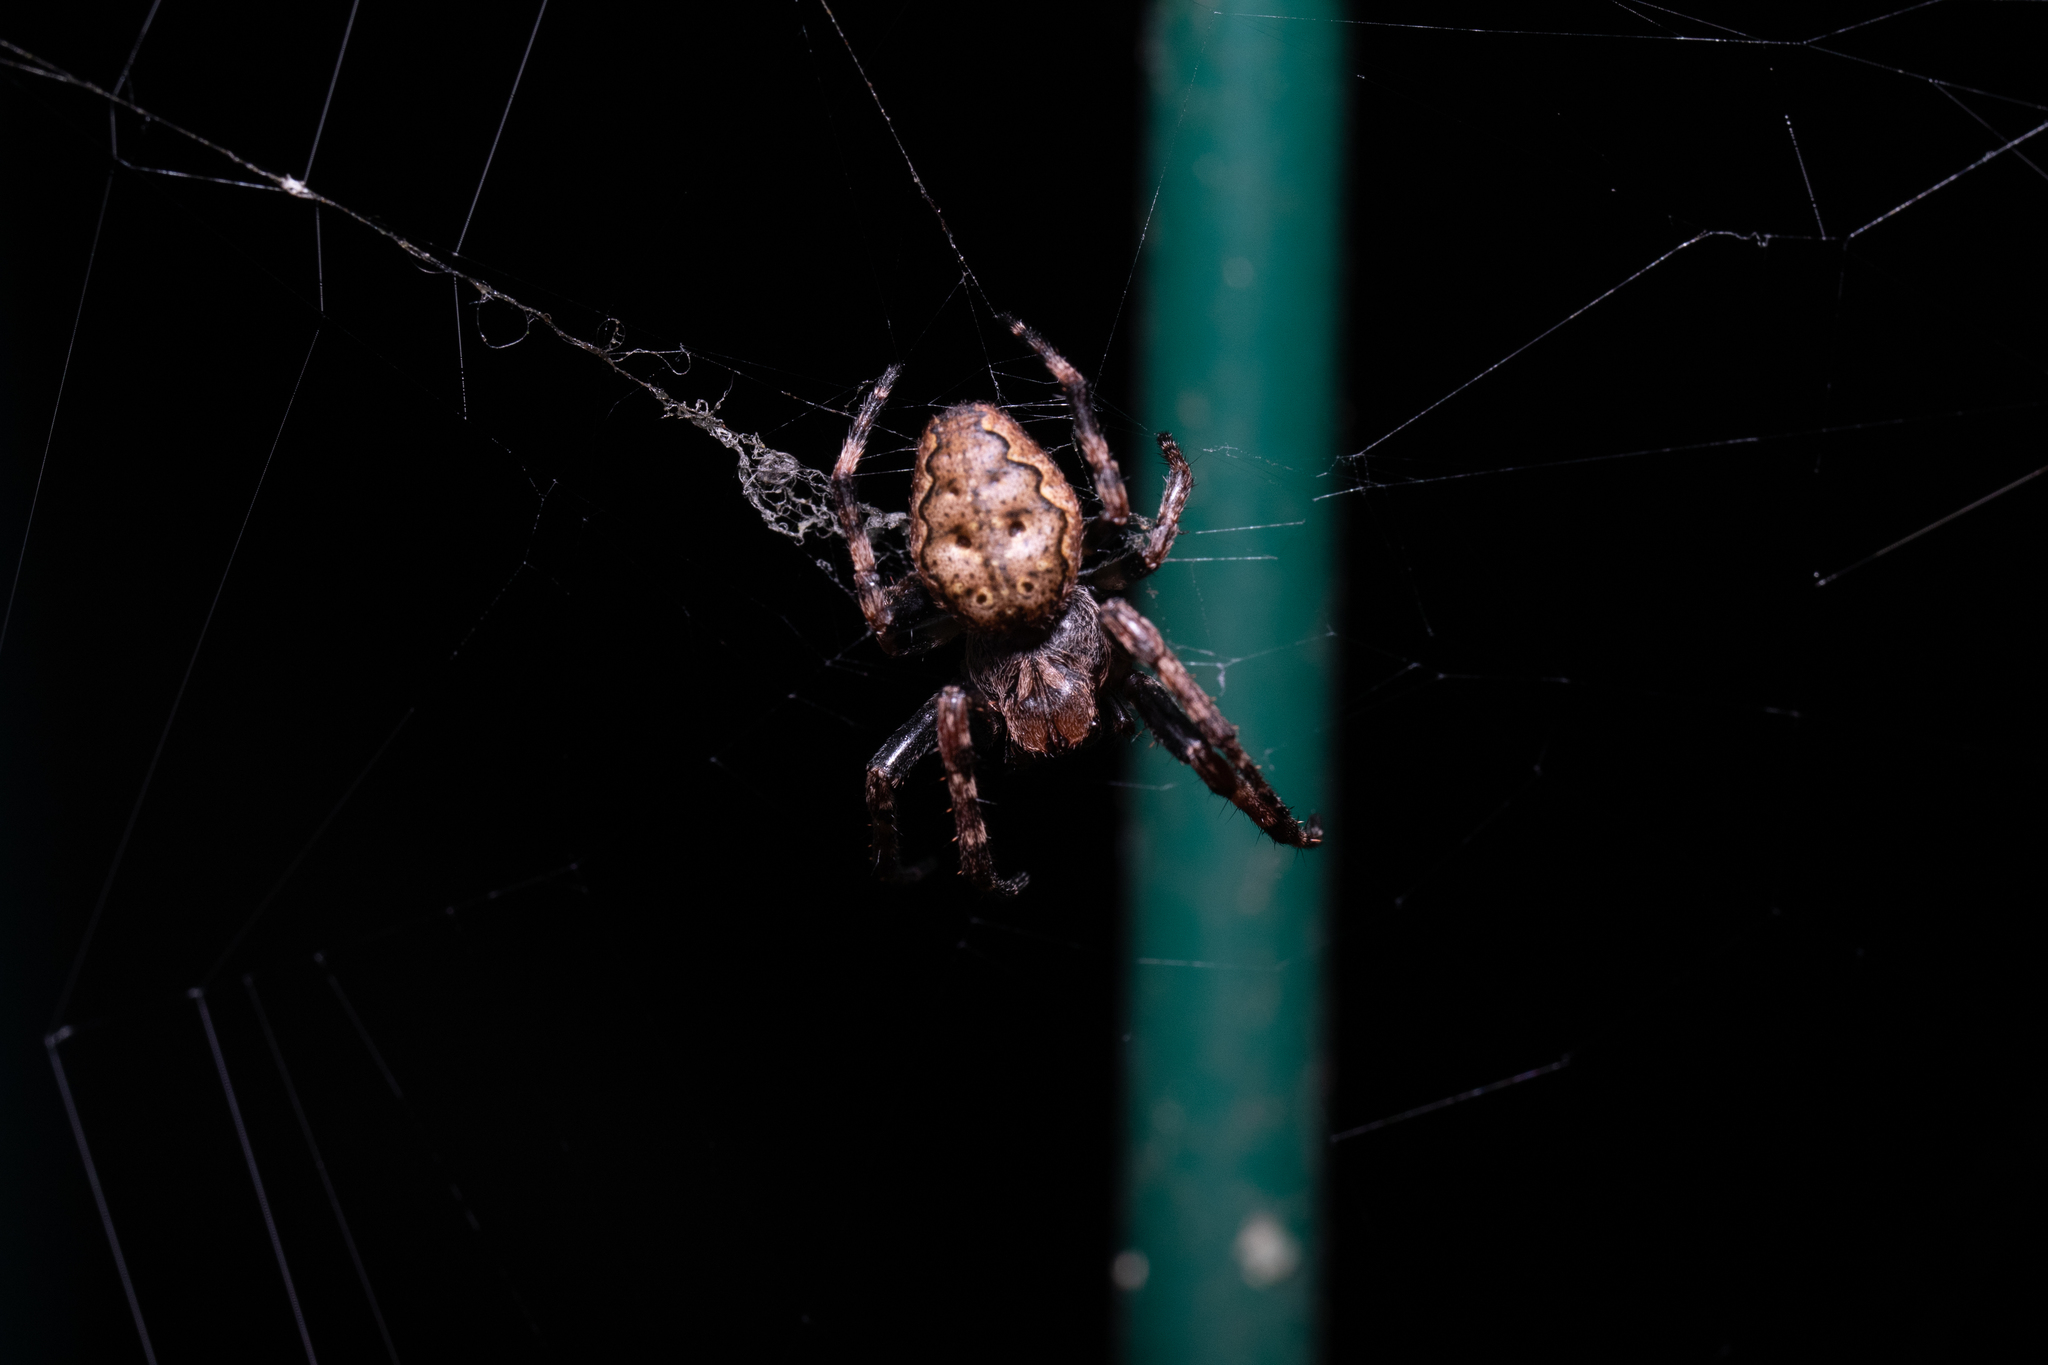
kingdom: Animalia
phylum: Arthropoda
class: Arachnida
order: Araneae
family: Araneidae
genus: Nuctenea
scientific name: Nuctenea umbratica
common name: Toad spider
